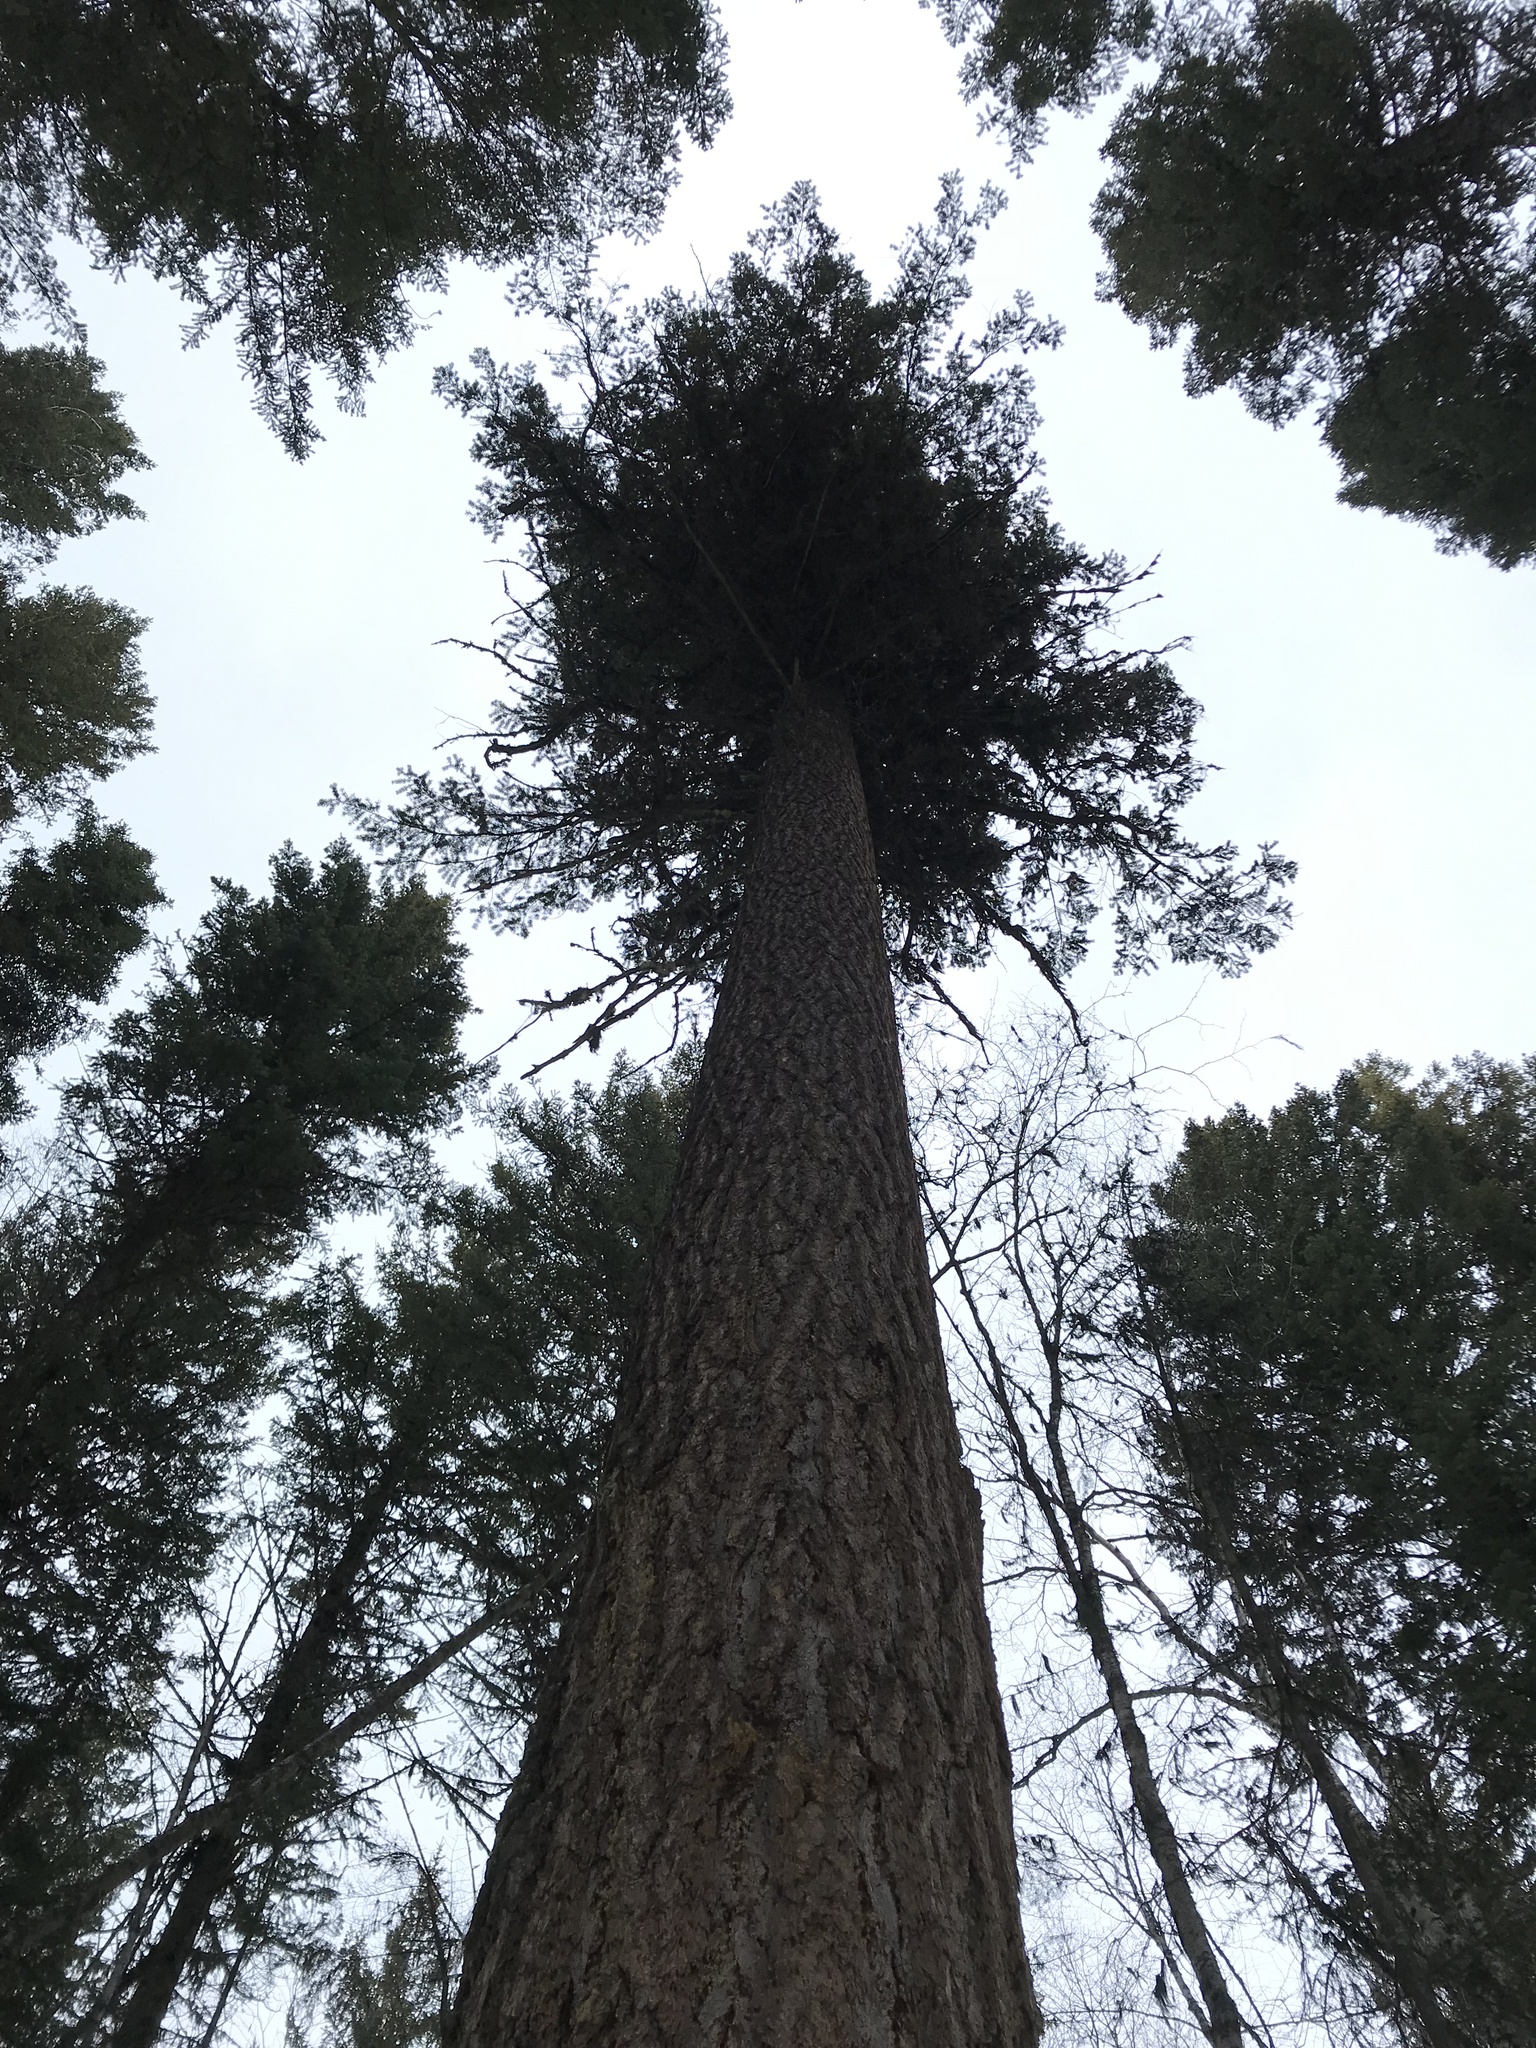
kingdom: Plantae
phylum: Tracheophyta
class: Pinopsida
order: Pinales
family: Pinaceae
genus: Pseudotsuga
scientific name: Pseudotsuga menziesii
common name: Douglas fir
